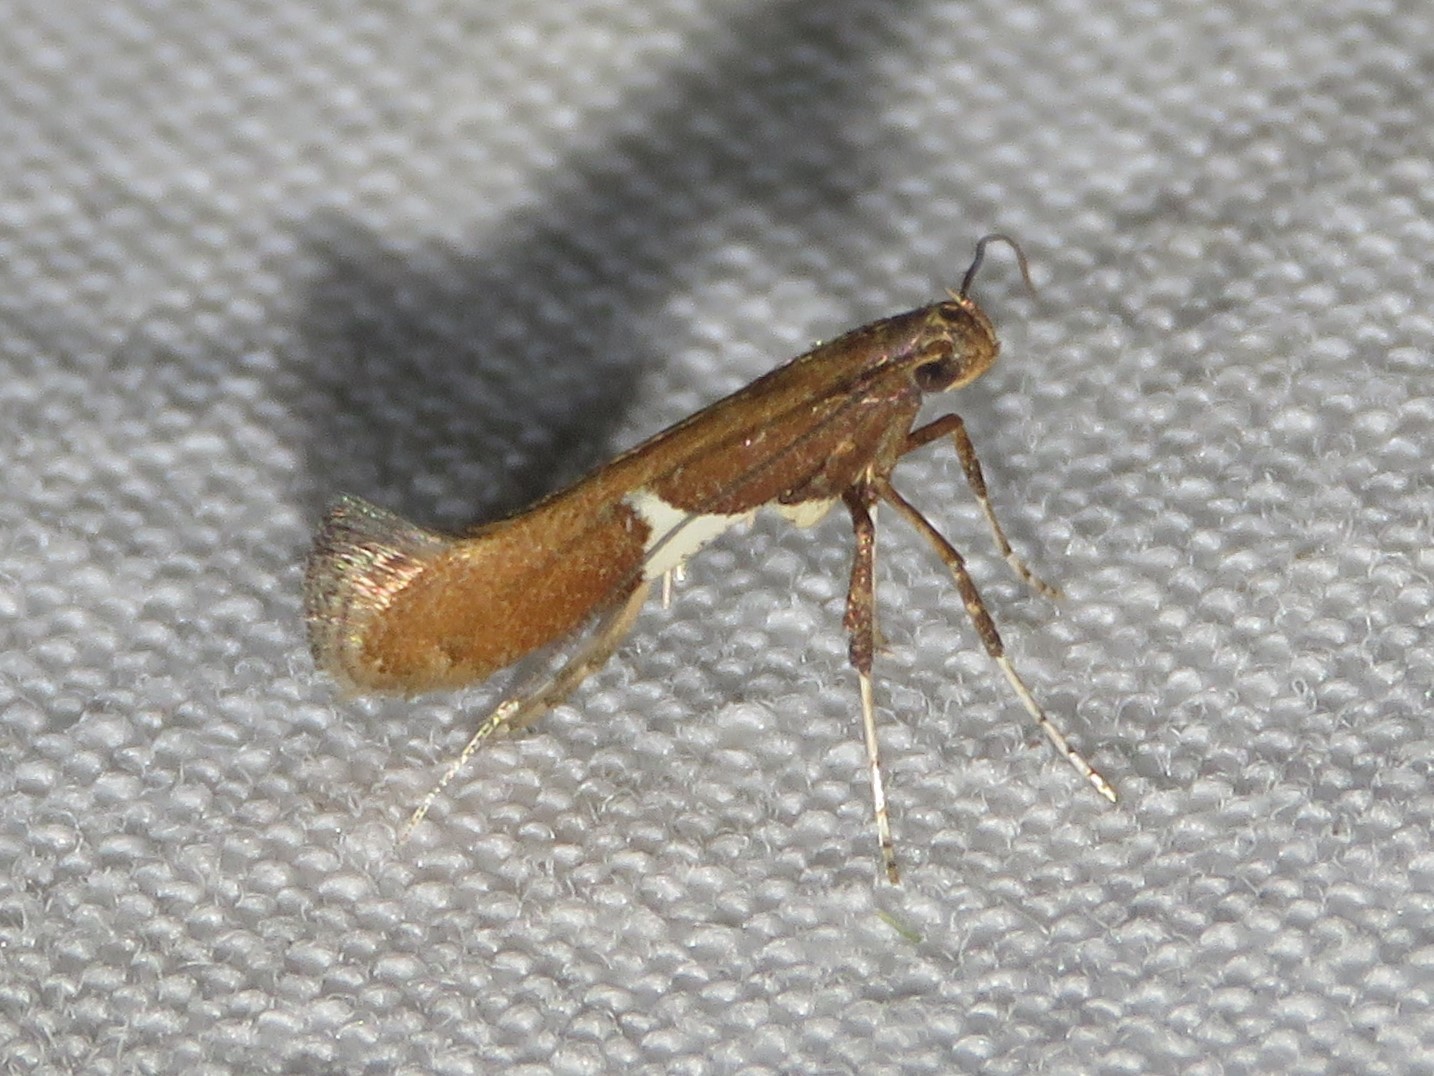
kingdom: Animalia
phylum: Arthropoda
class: Insecta
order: Lepidoptera
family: Gracillariidae
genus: Caloptilia
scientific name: Caloptilia stigmatella
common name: White-triangle slender
